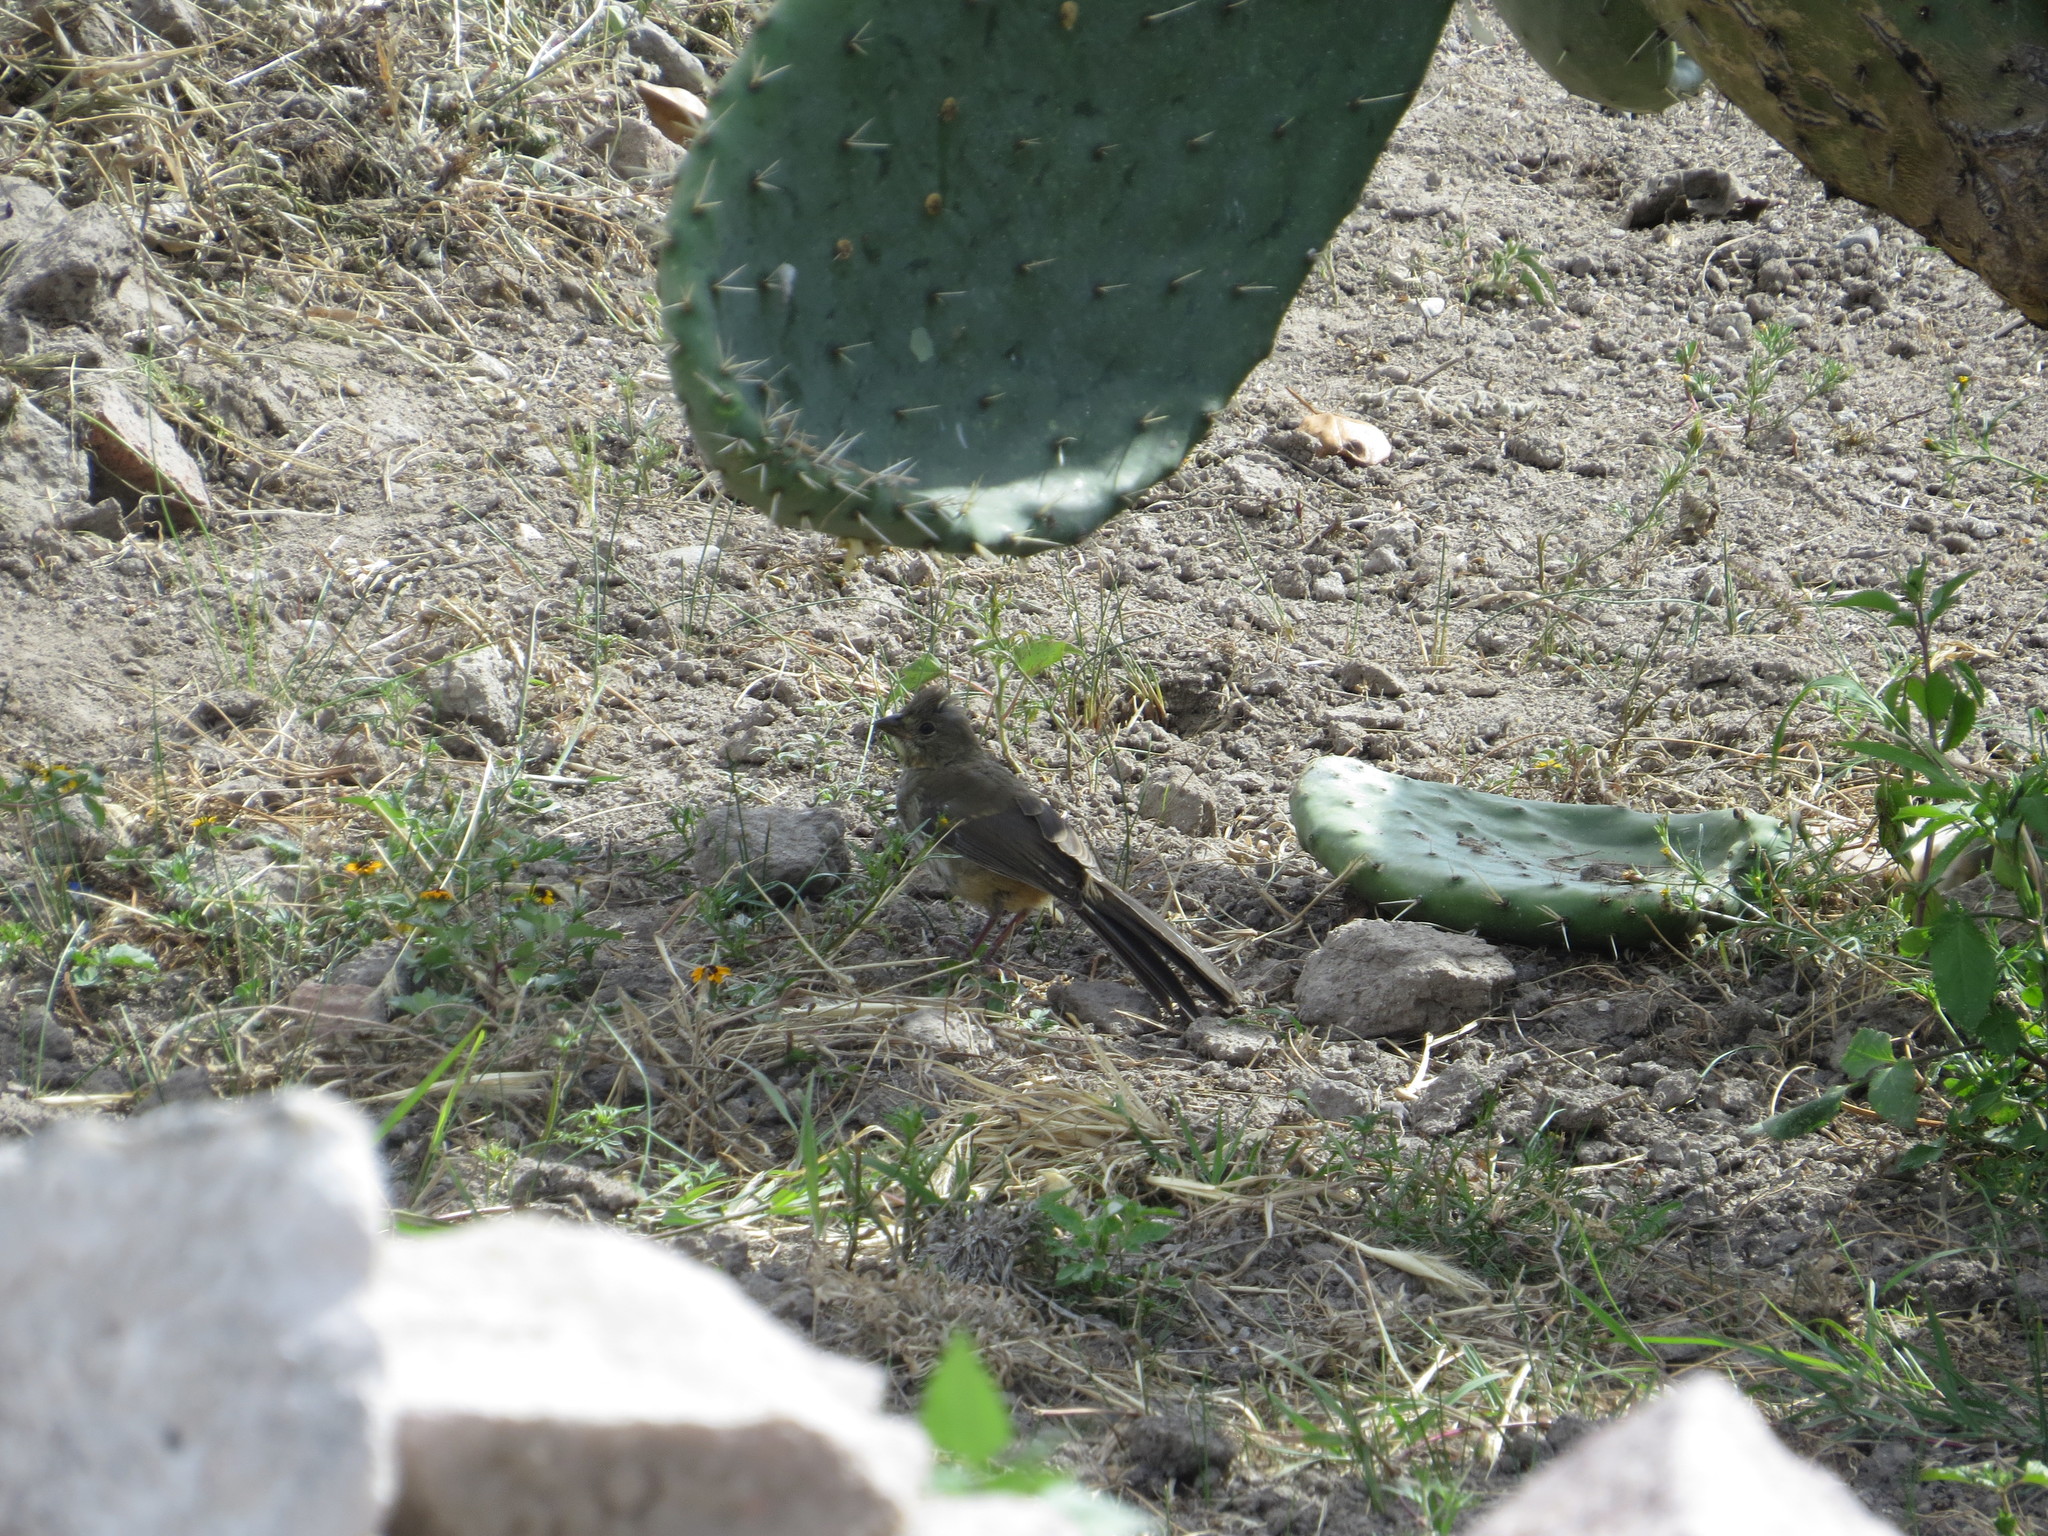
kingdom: Animalia
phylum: Chordata
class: Aves
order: Passeriformes
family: Passerellidae
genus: Melozone
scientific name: Melozone albicollis
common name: White-throated towhee
